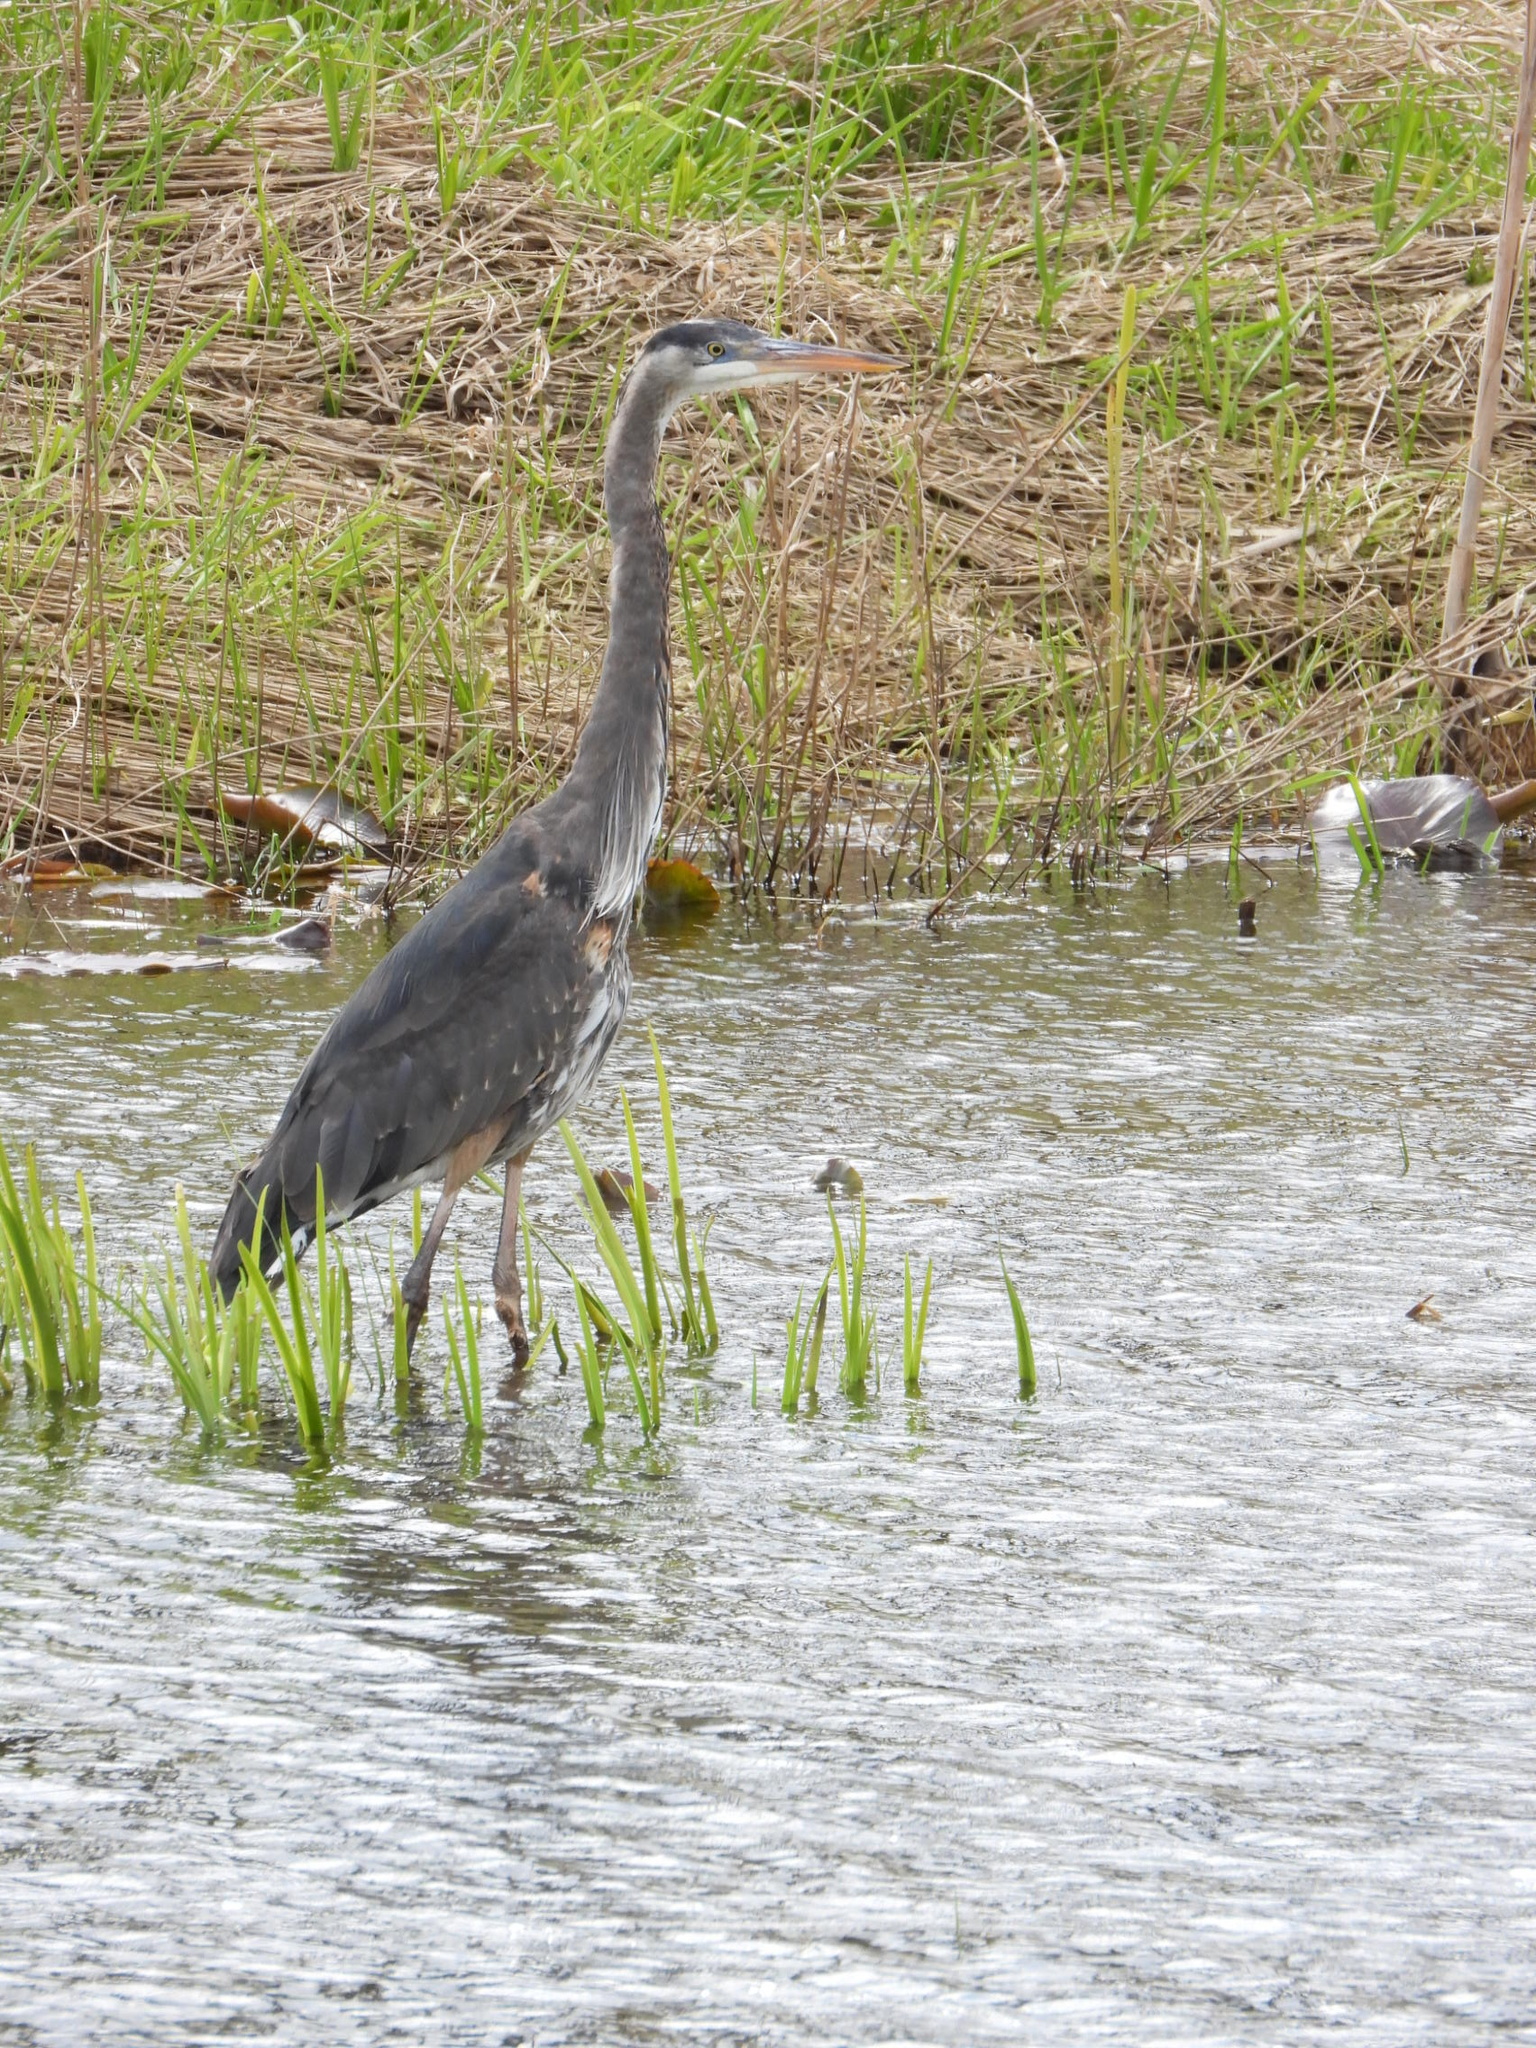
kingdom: Animalia
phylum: Chordata
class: Aves
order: Pelecaniformes
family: Ardeidae
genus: Ardea
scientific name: Ardea herodias
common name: Great blue heron
